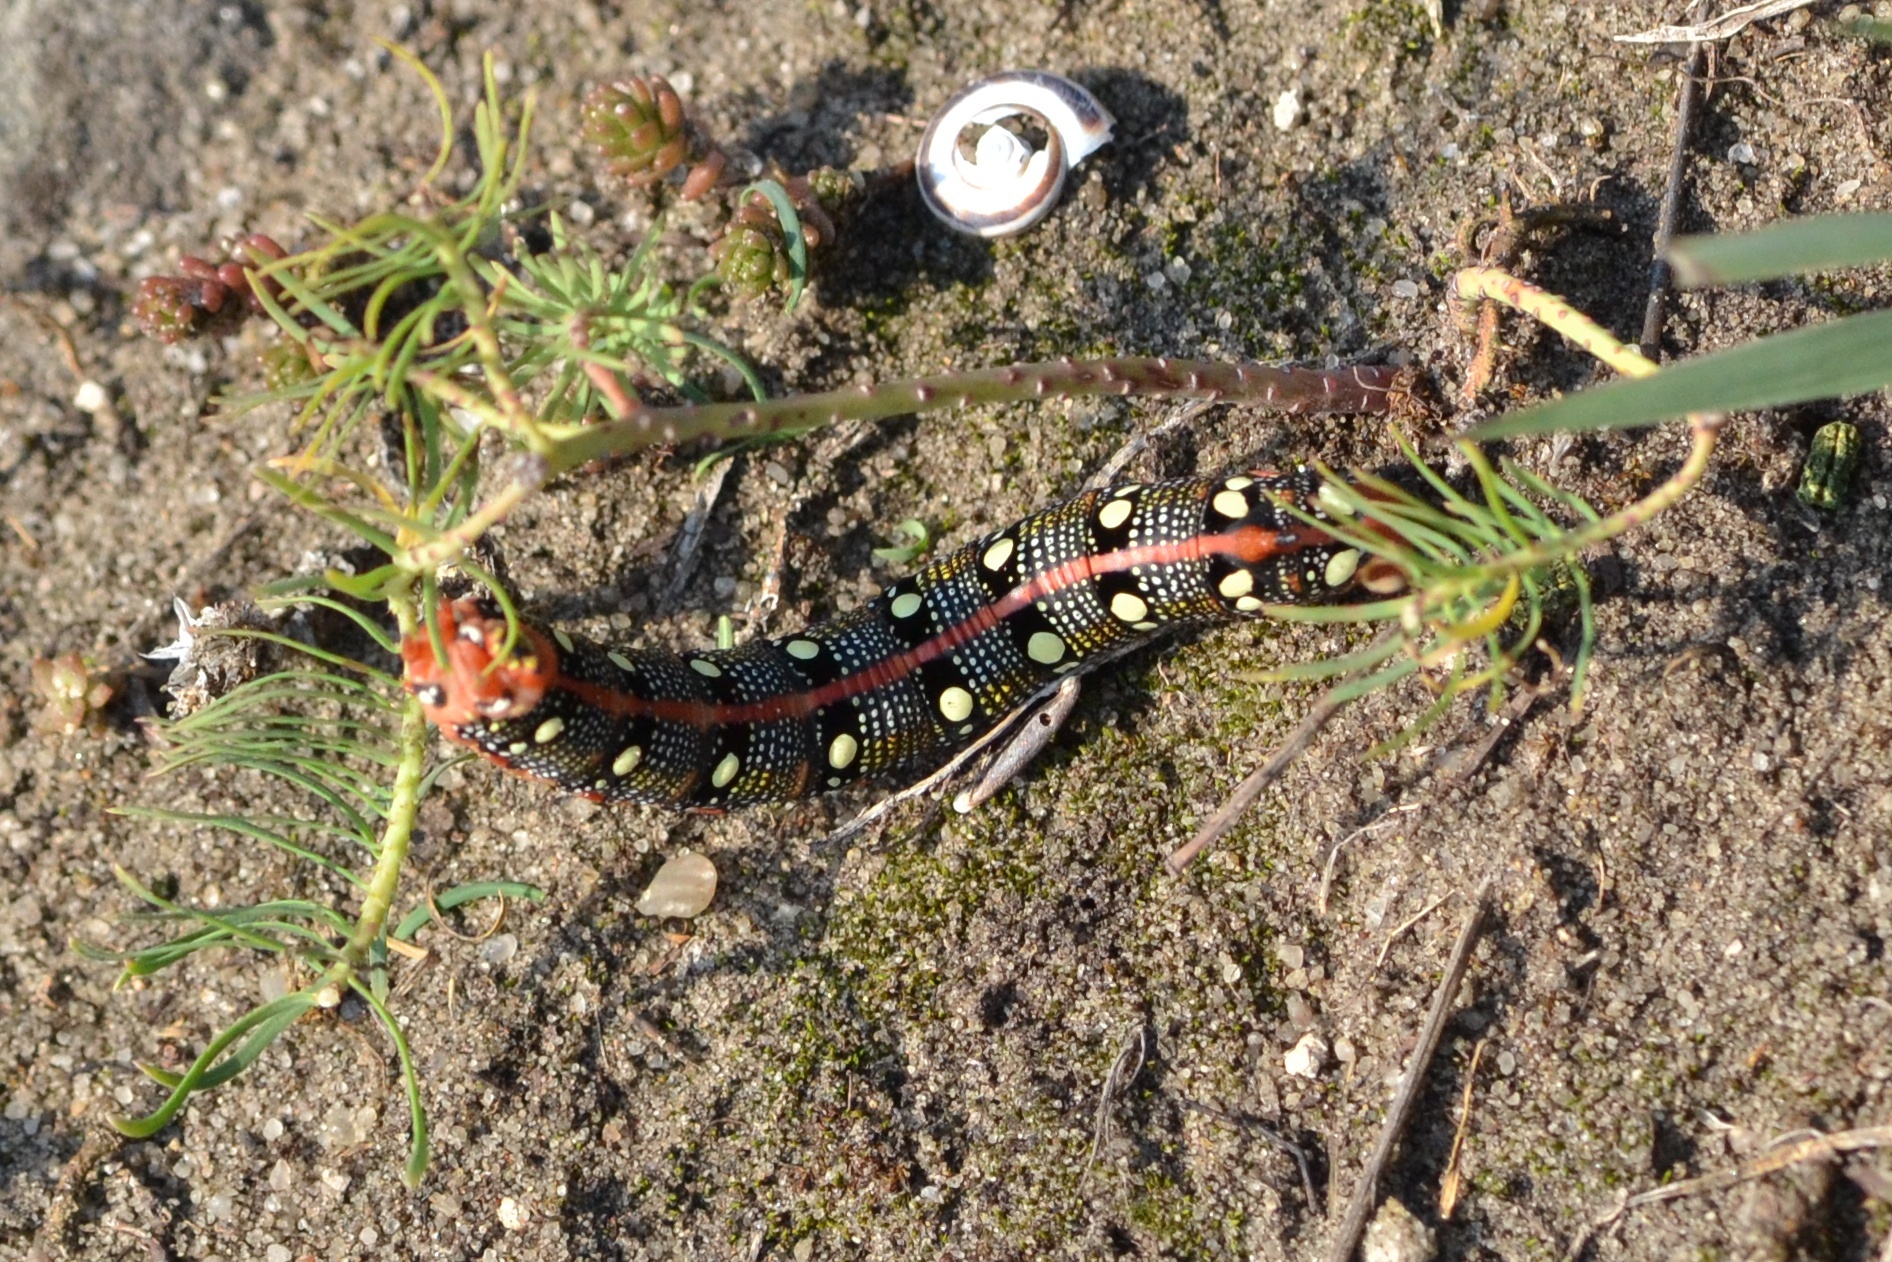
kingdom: Animalia
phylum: Arthropoda
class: Insecta
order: Lepidoptera
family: Sphingidae
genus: Hyles
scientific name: Hyles euphorbiae
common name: Spurge hawk-moth
